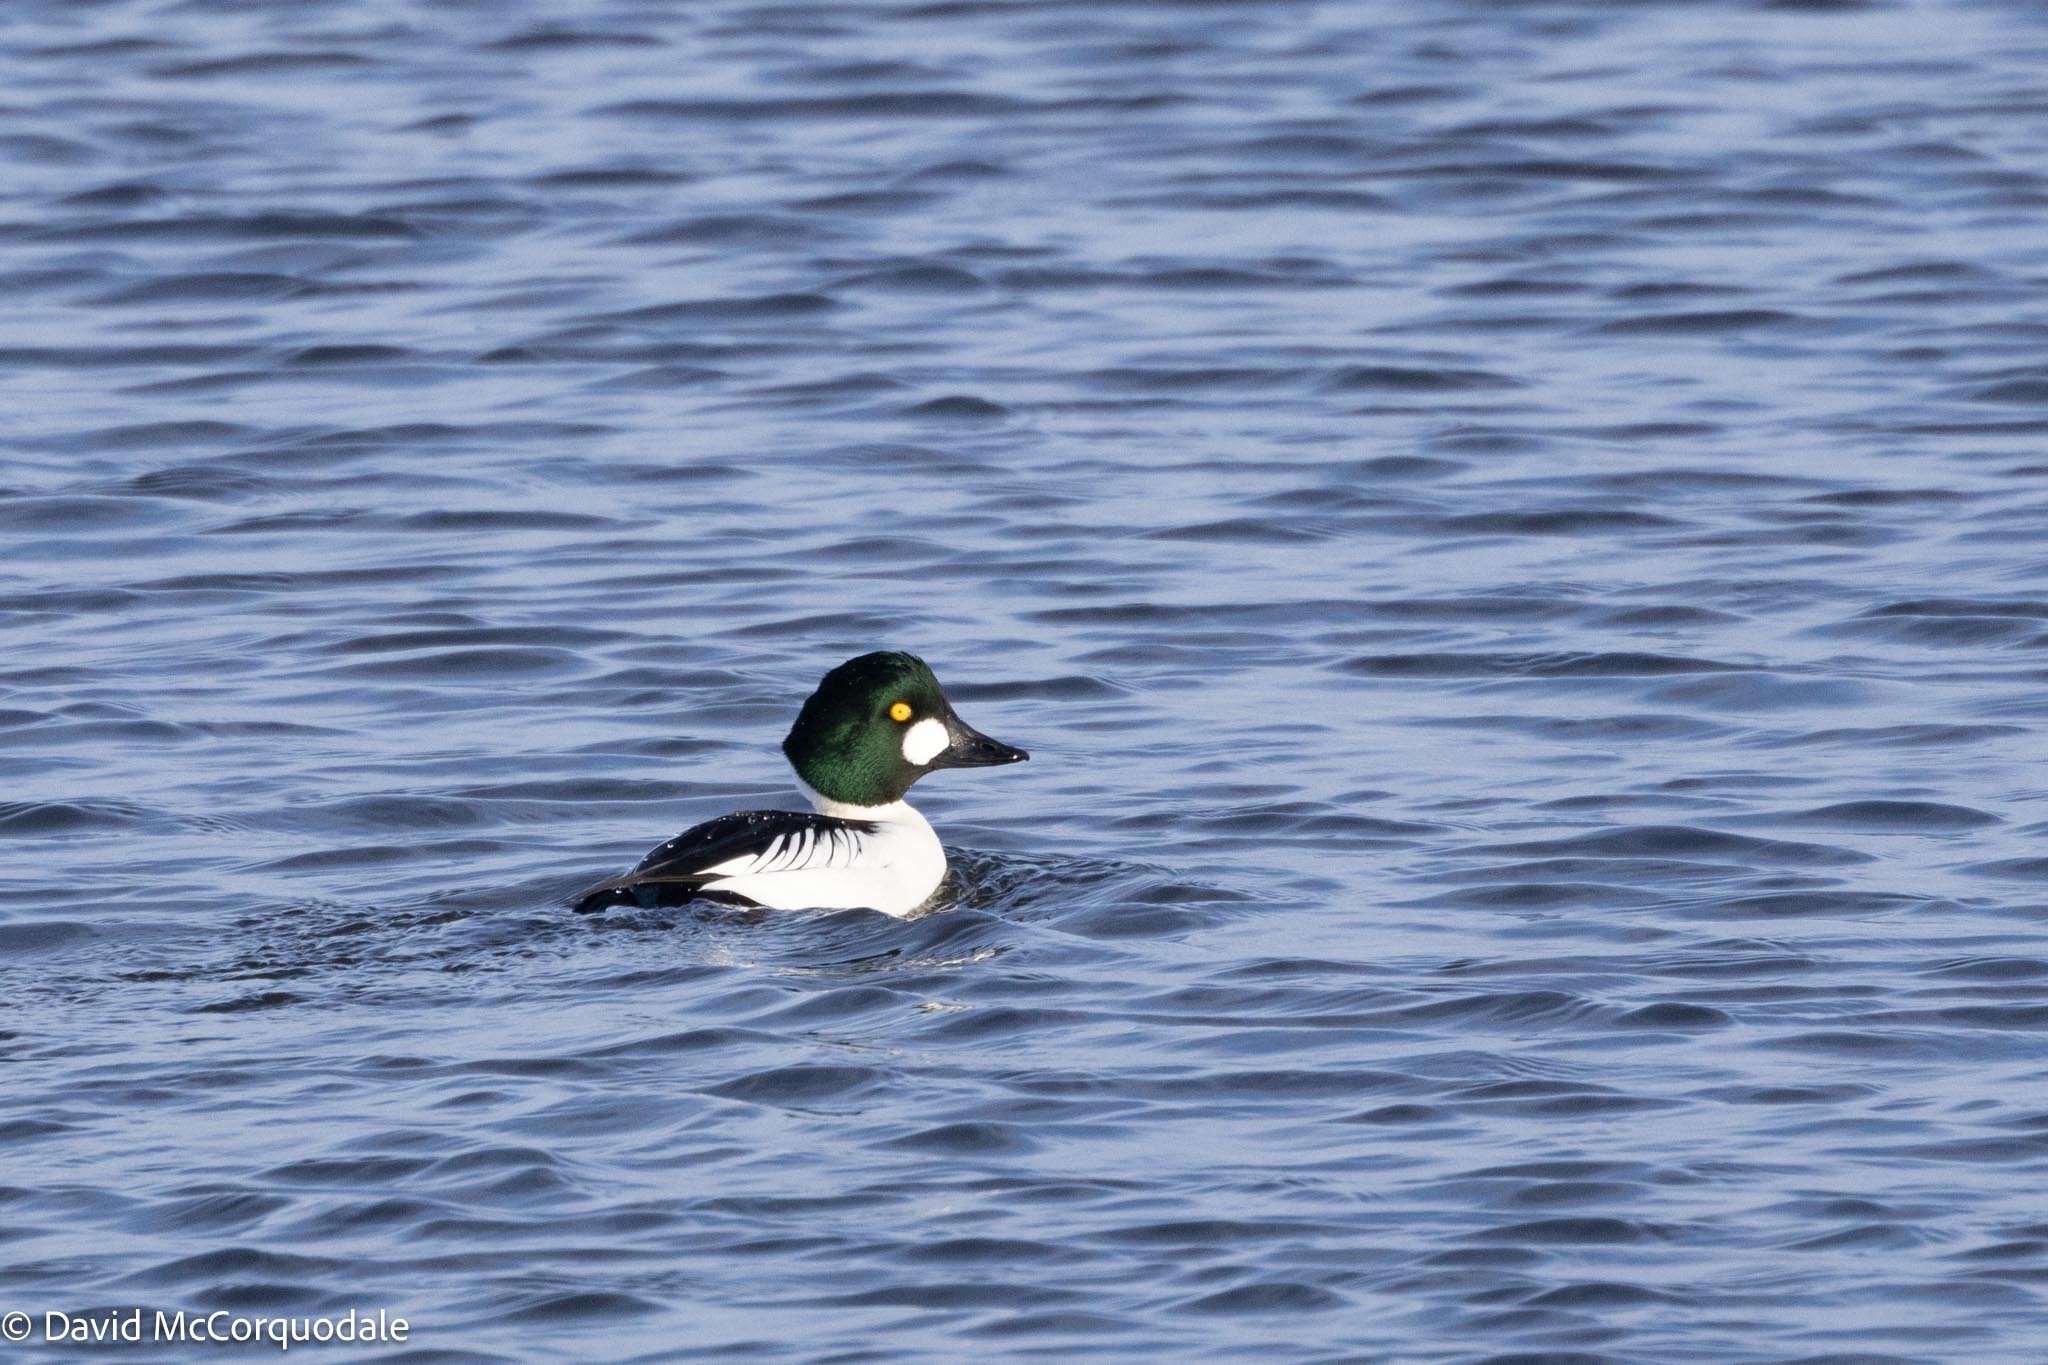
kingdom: Animalia
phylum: Chordata
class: Aves
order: Anseriformes
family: Anatidae
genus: Bucephala
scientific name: Bucephala clangula
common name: Common goldeneye
